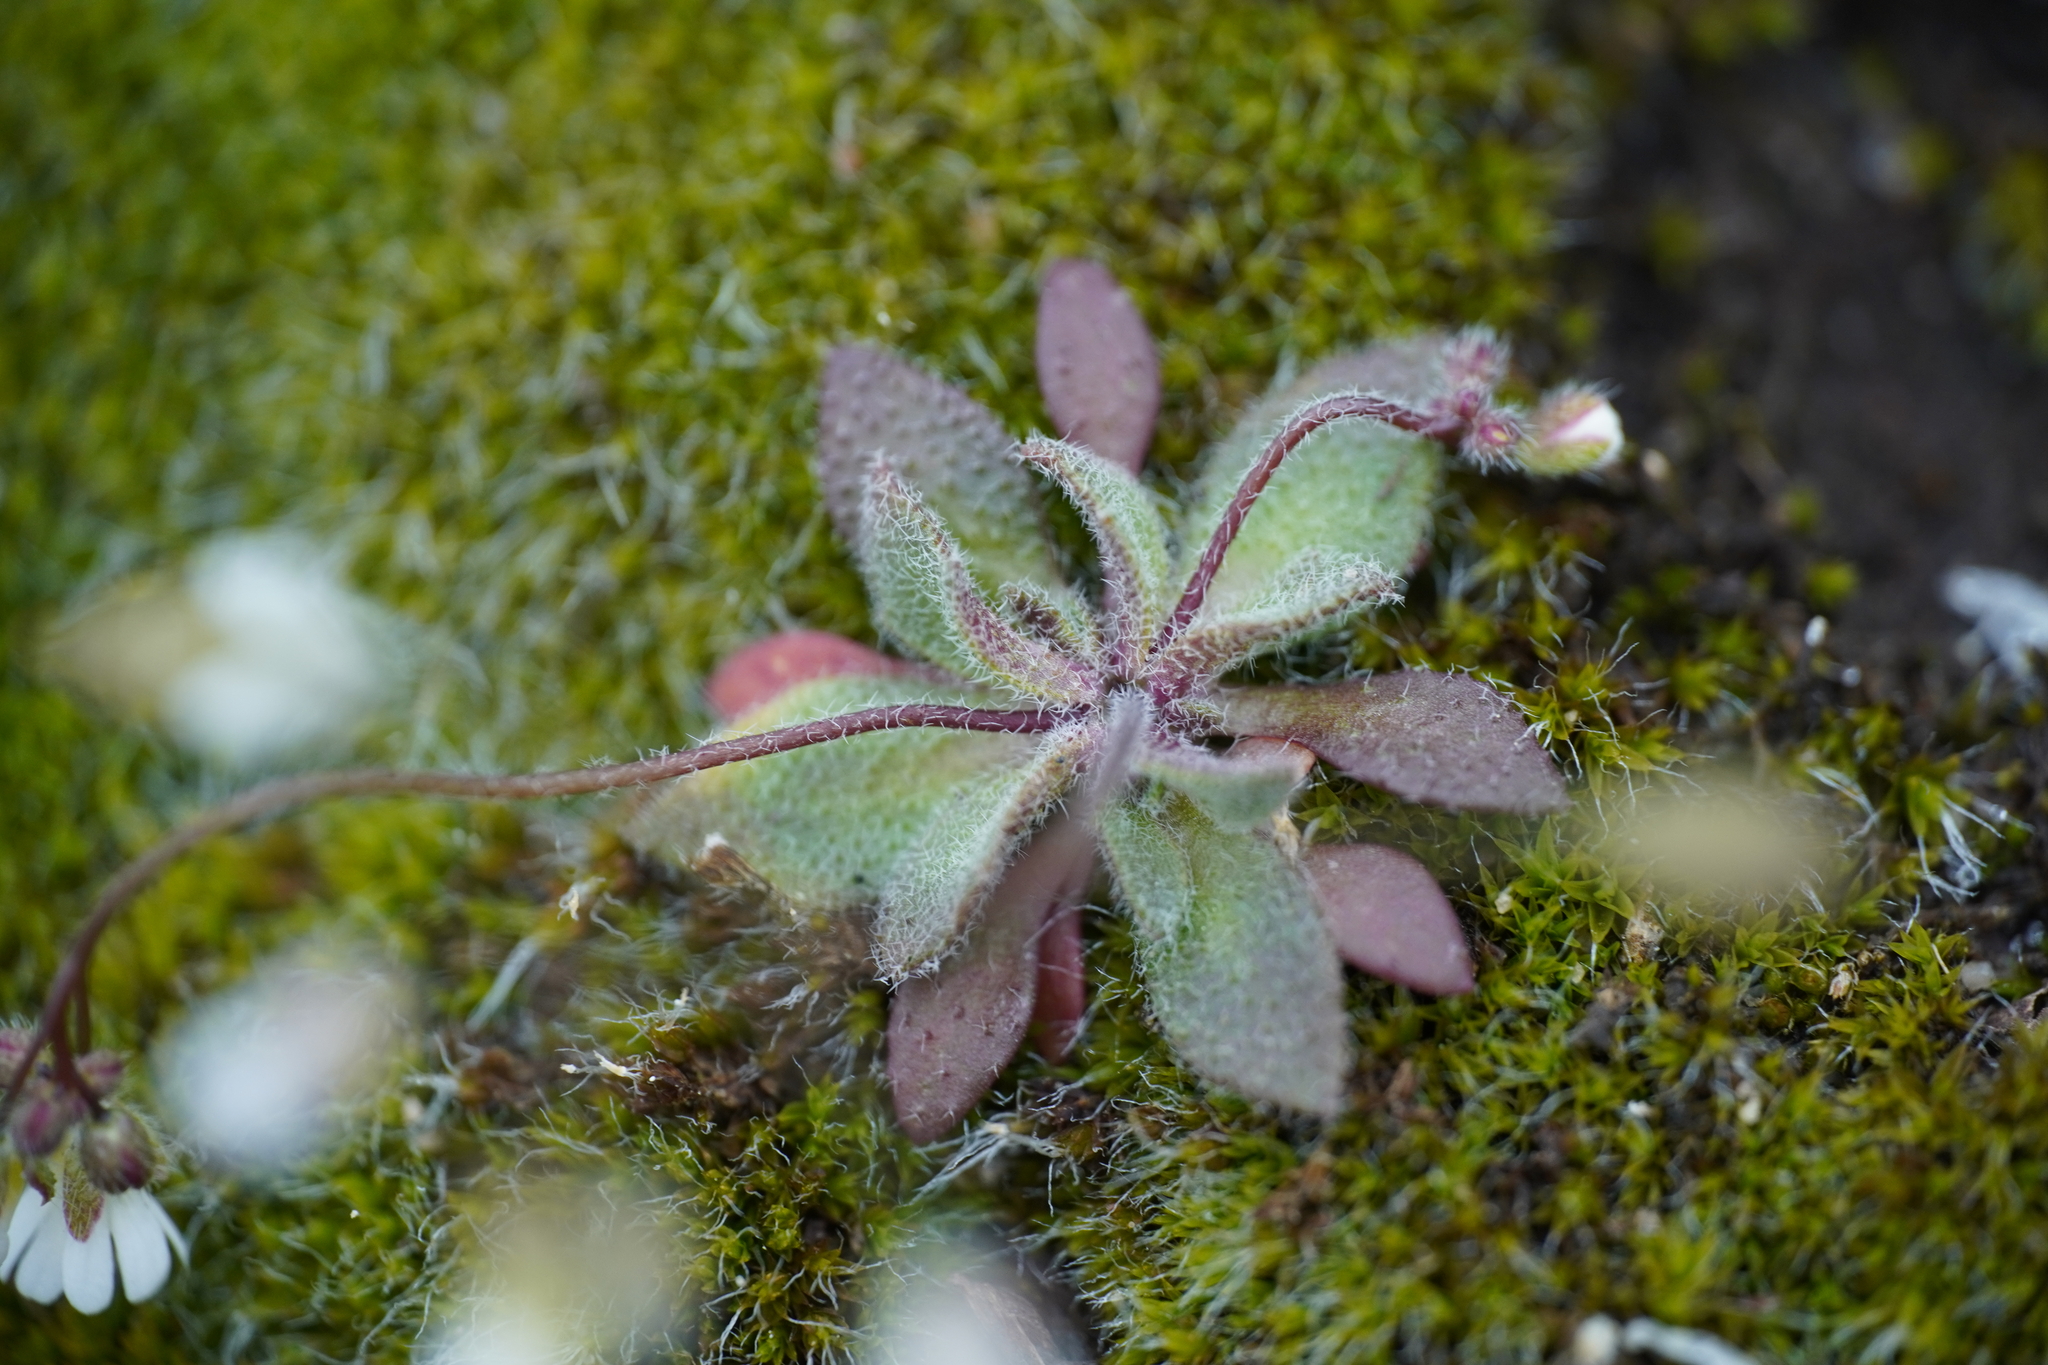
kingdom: Plantae
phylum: Tracheophyta
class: Magnoliopsida
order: Brassicales
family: Brassicaceae
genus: Draba
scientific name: Draba verna
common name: Spring draba
